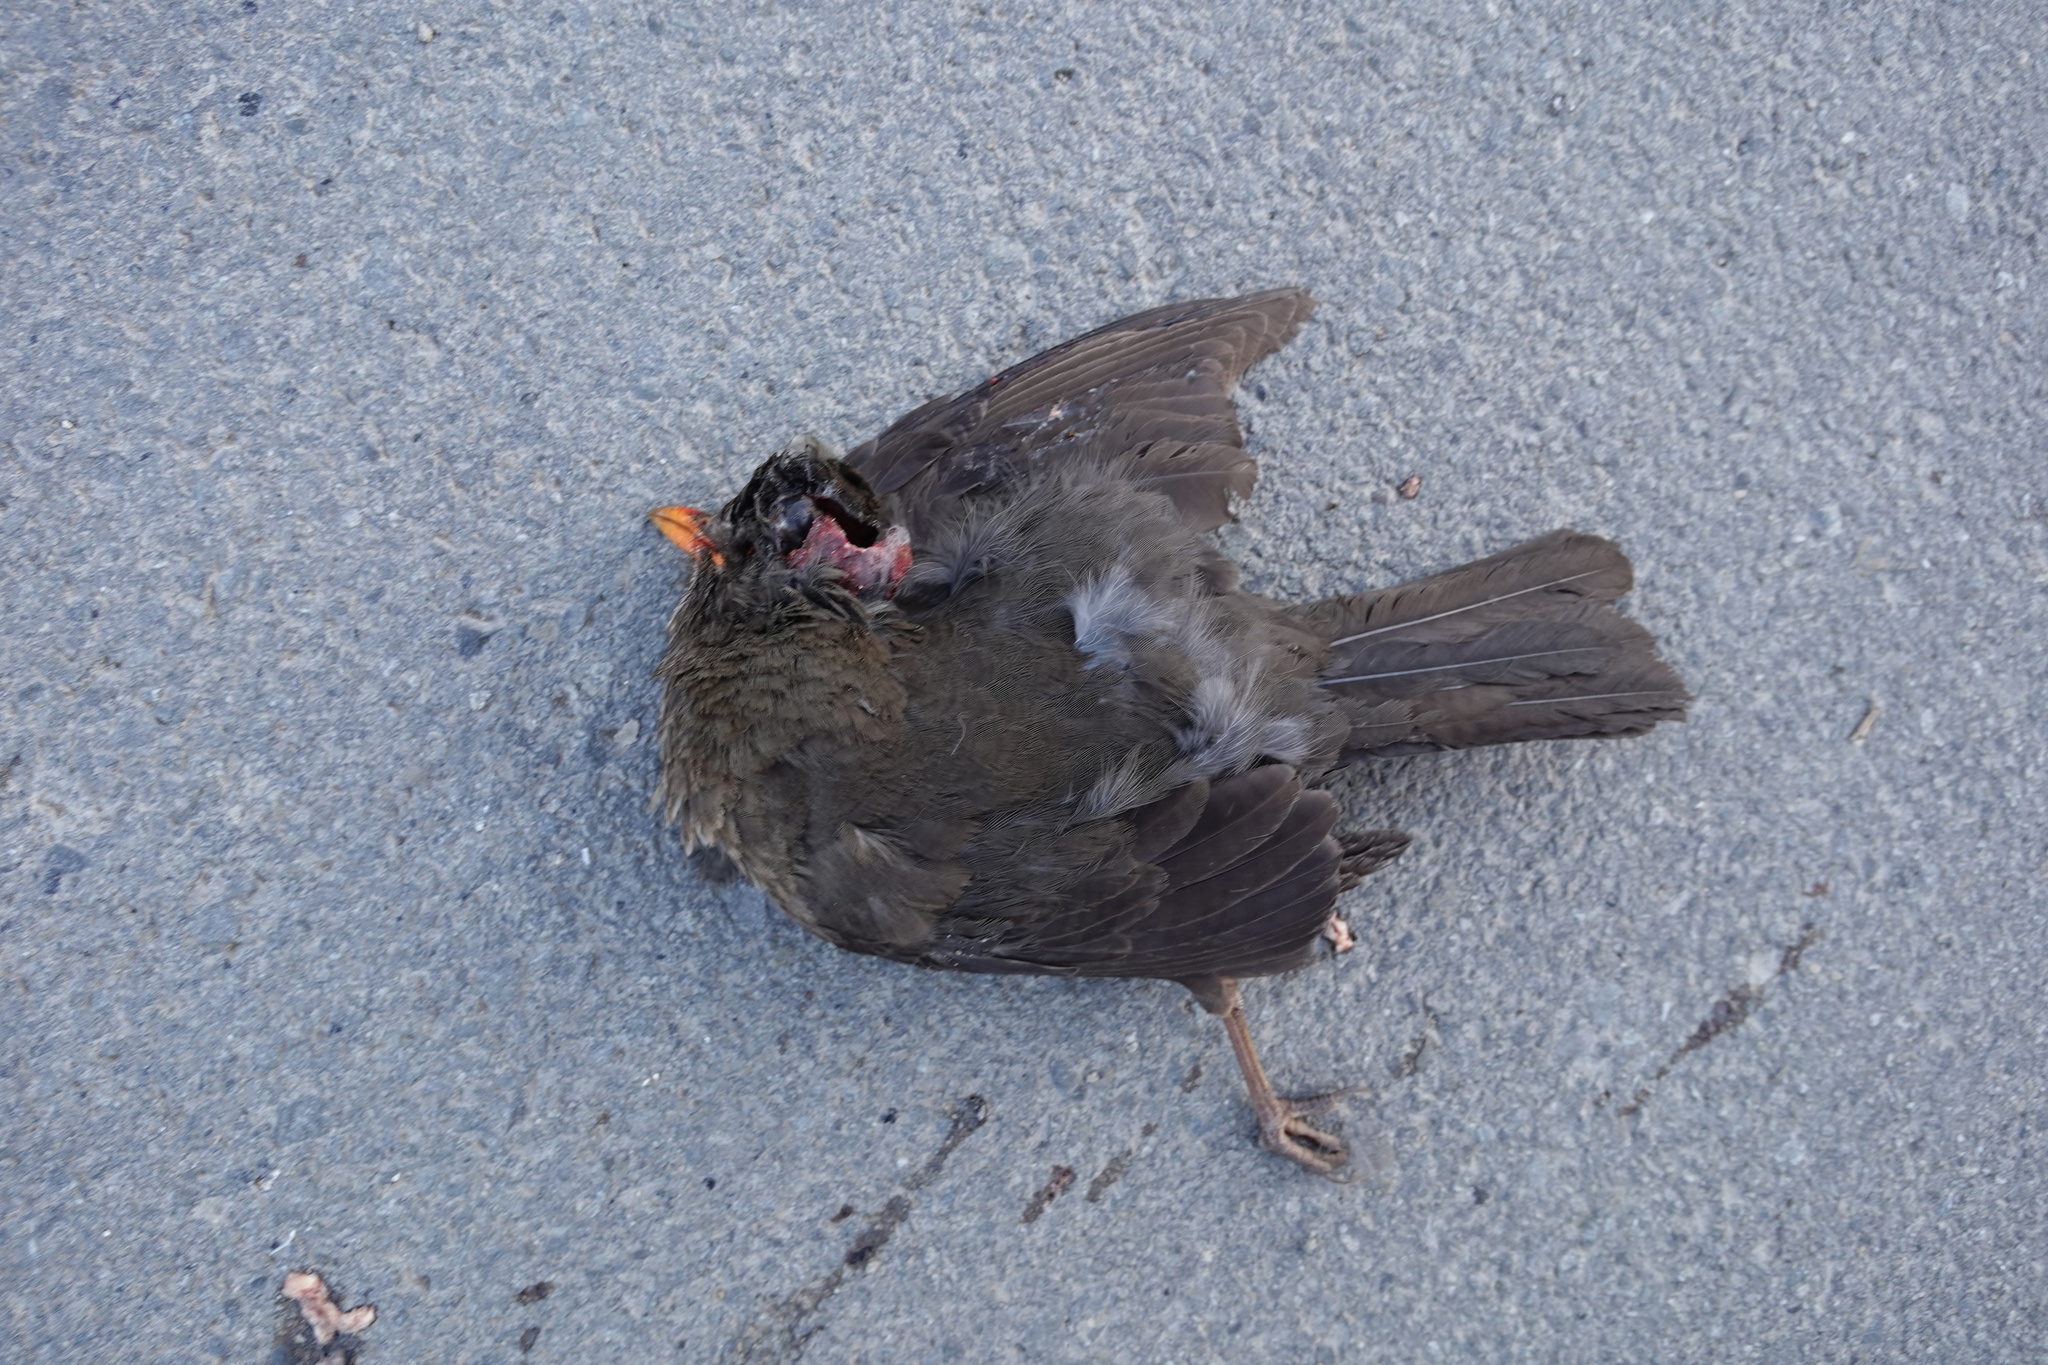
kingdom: Animalia
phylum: Chordata
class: Aves
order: Passeriformes
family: Turdidae
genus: Turdus
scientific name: Turdus merula
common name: Common blackbird
